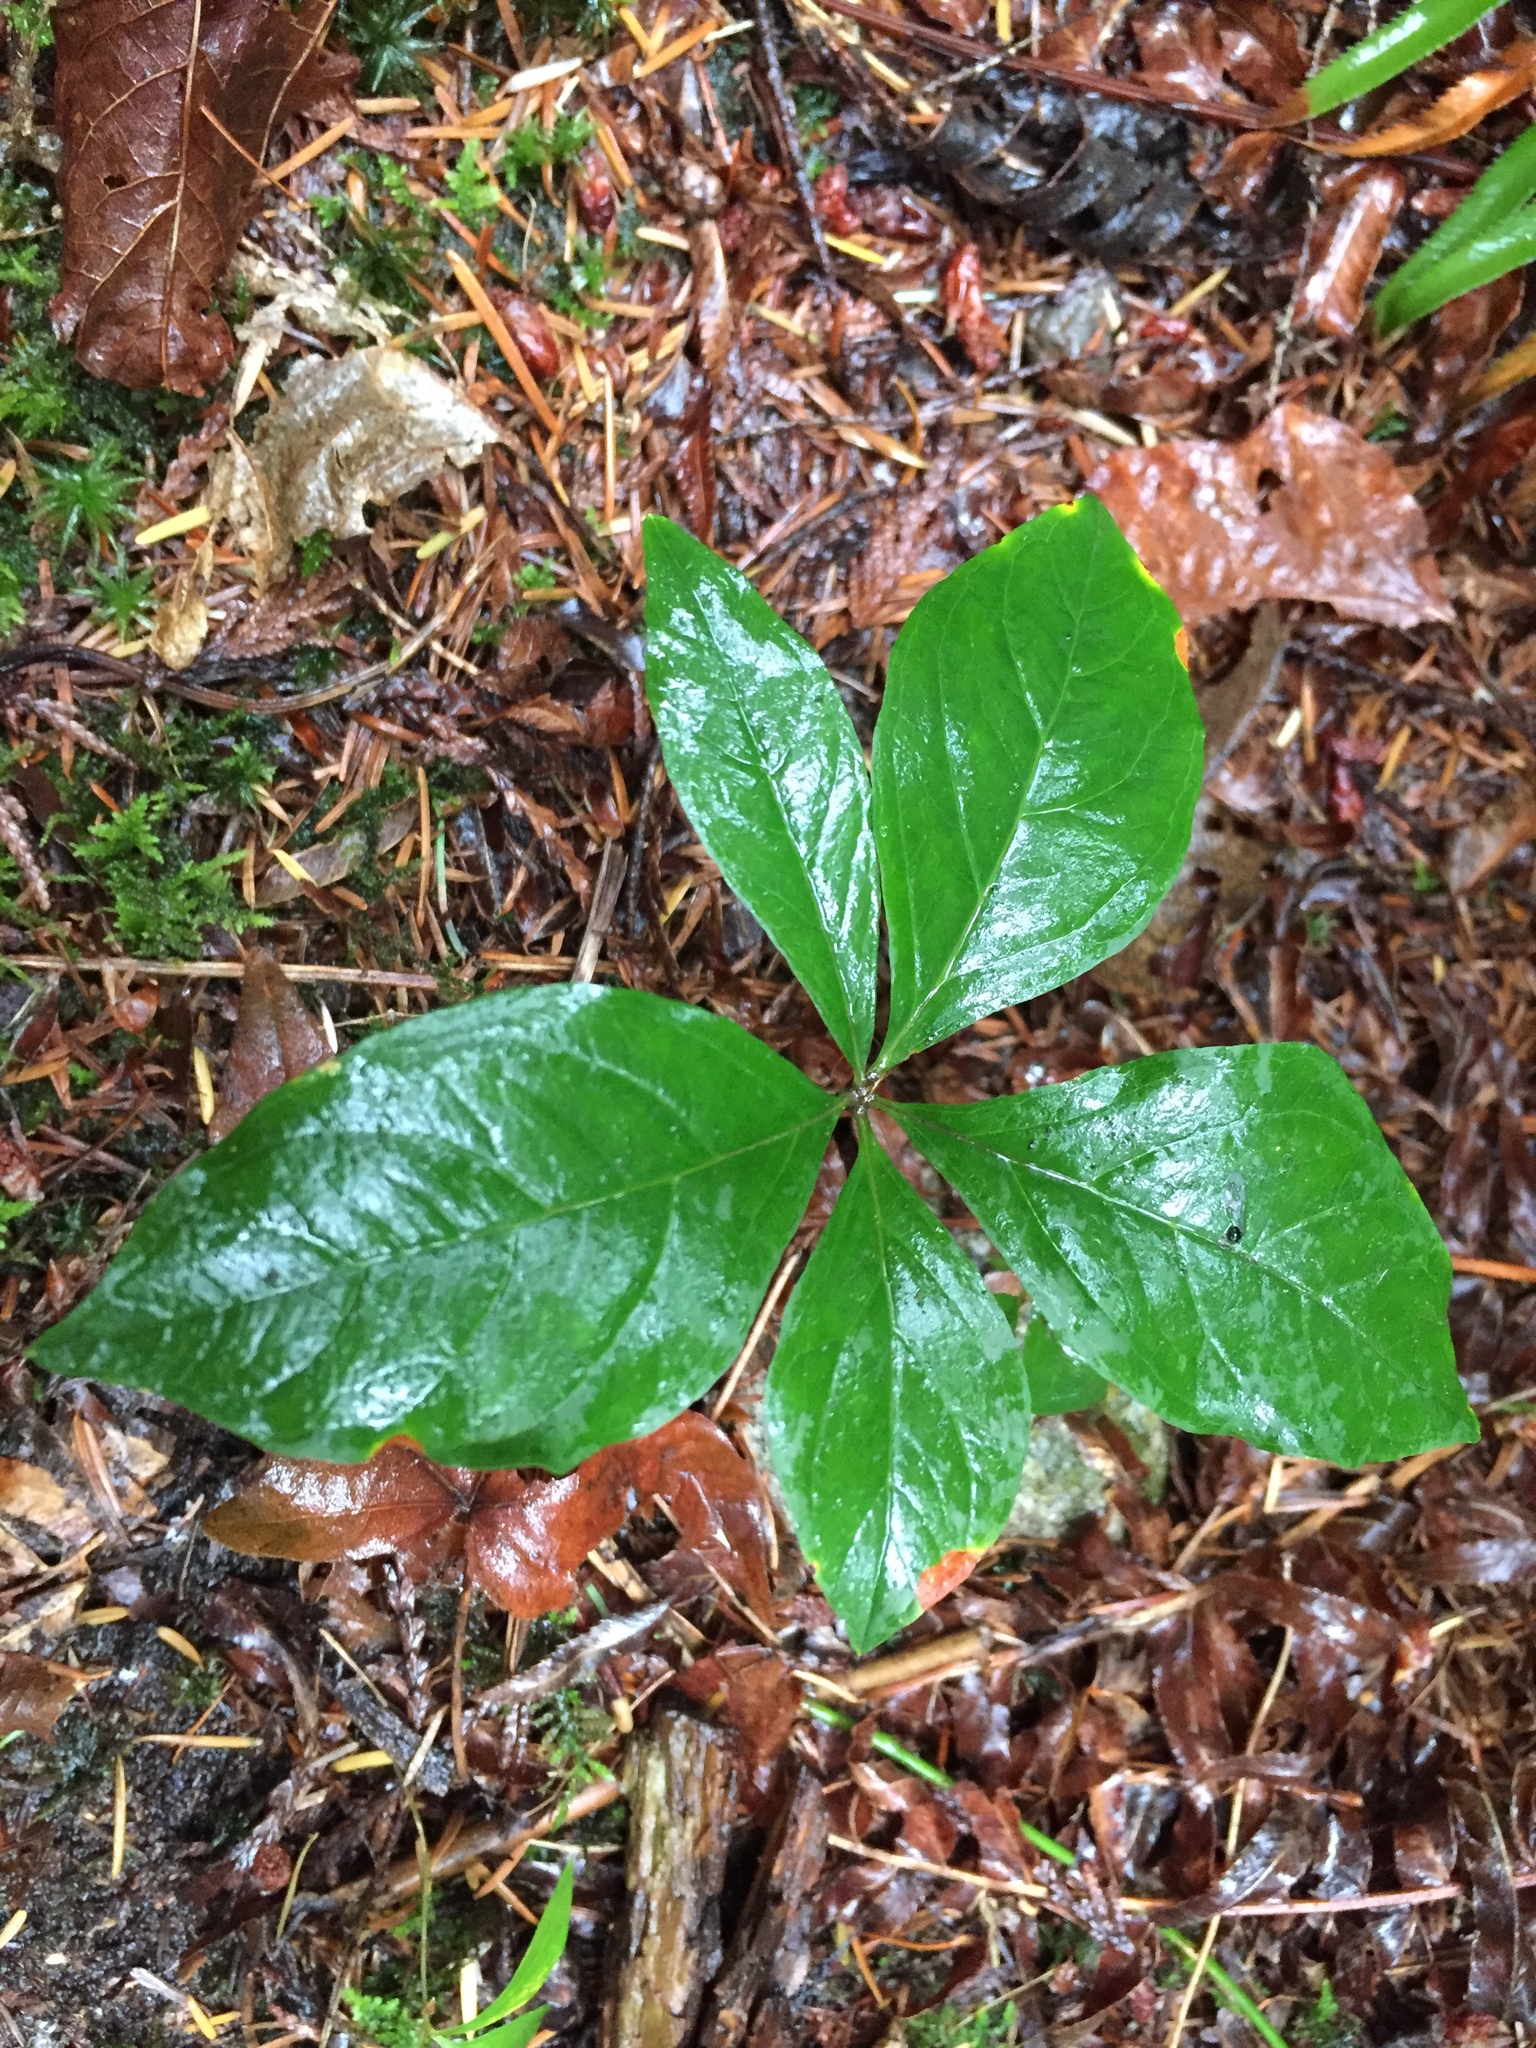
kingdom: Plantae
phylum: Tracheophyta
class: Magnoliopsida
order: Ericales
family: Primulaceae
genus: Lysimachia
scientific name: Lysimachia latifolia
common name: Pacific starflower
